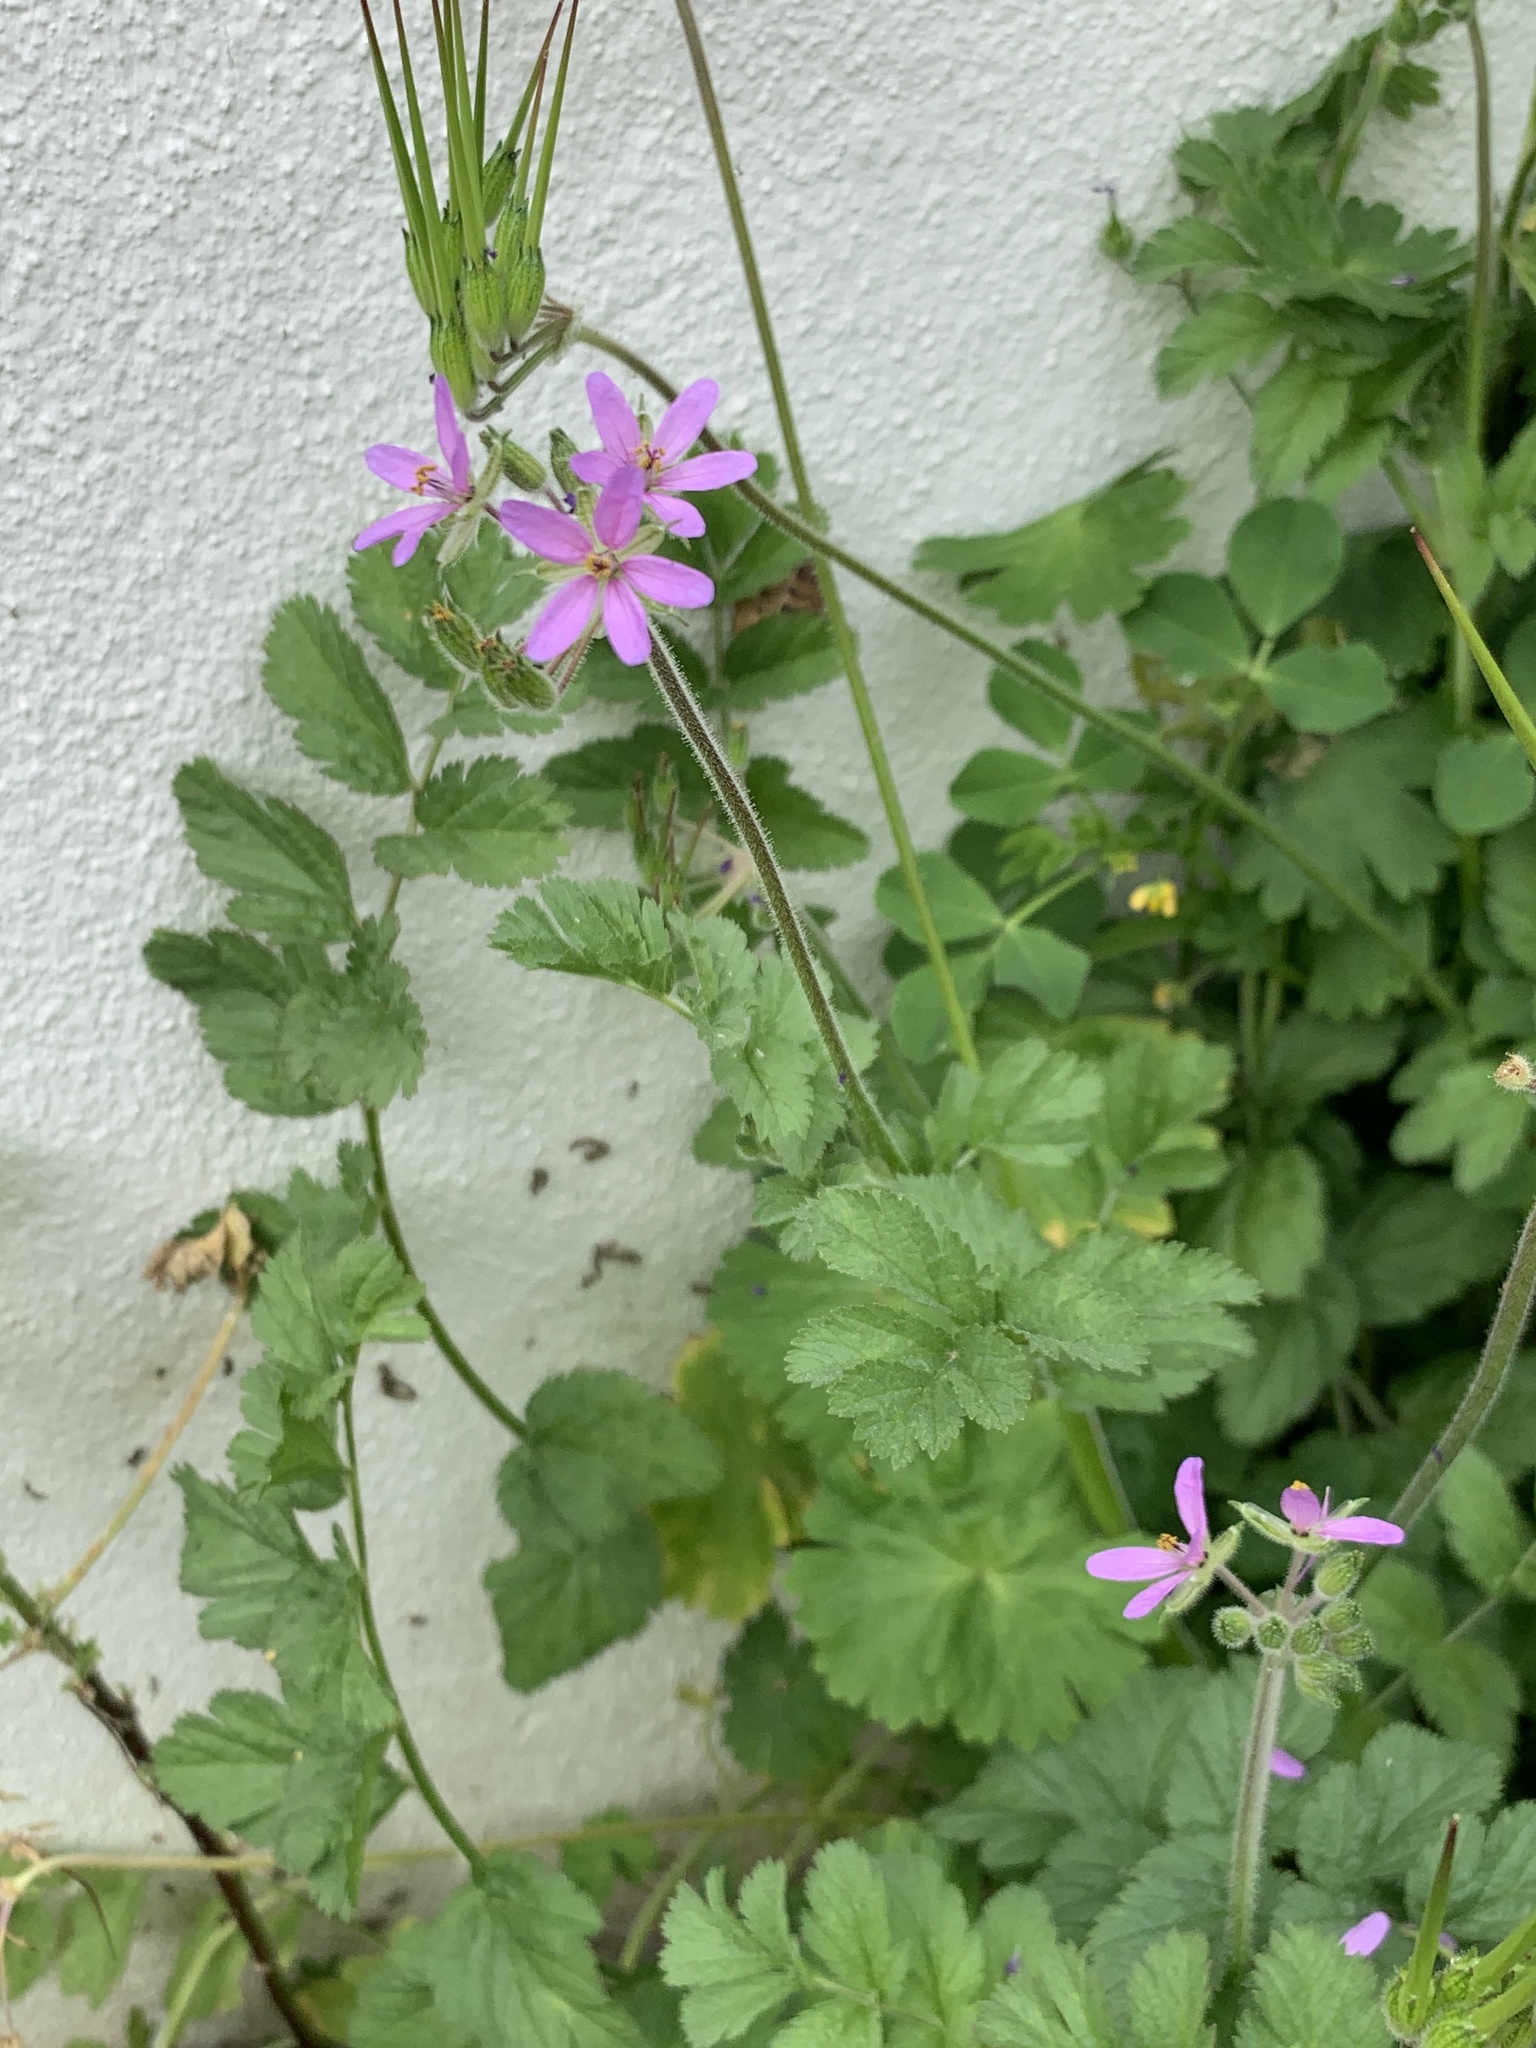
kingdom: Plantae
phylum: Tracheophyta
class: Magnoliopsida
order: Geraniales
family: Geraniaceae
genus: Erodium
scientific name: Erodium moschatum
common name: Musk stork's-bill
